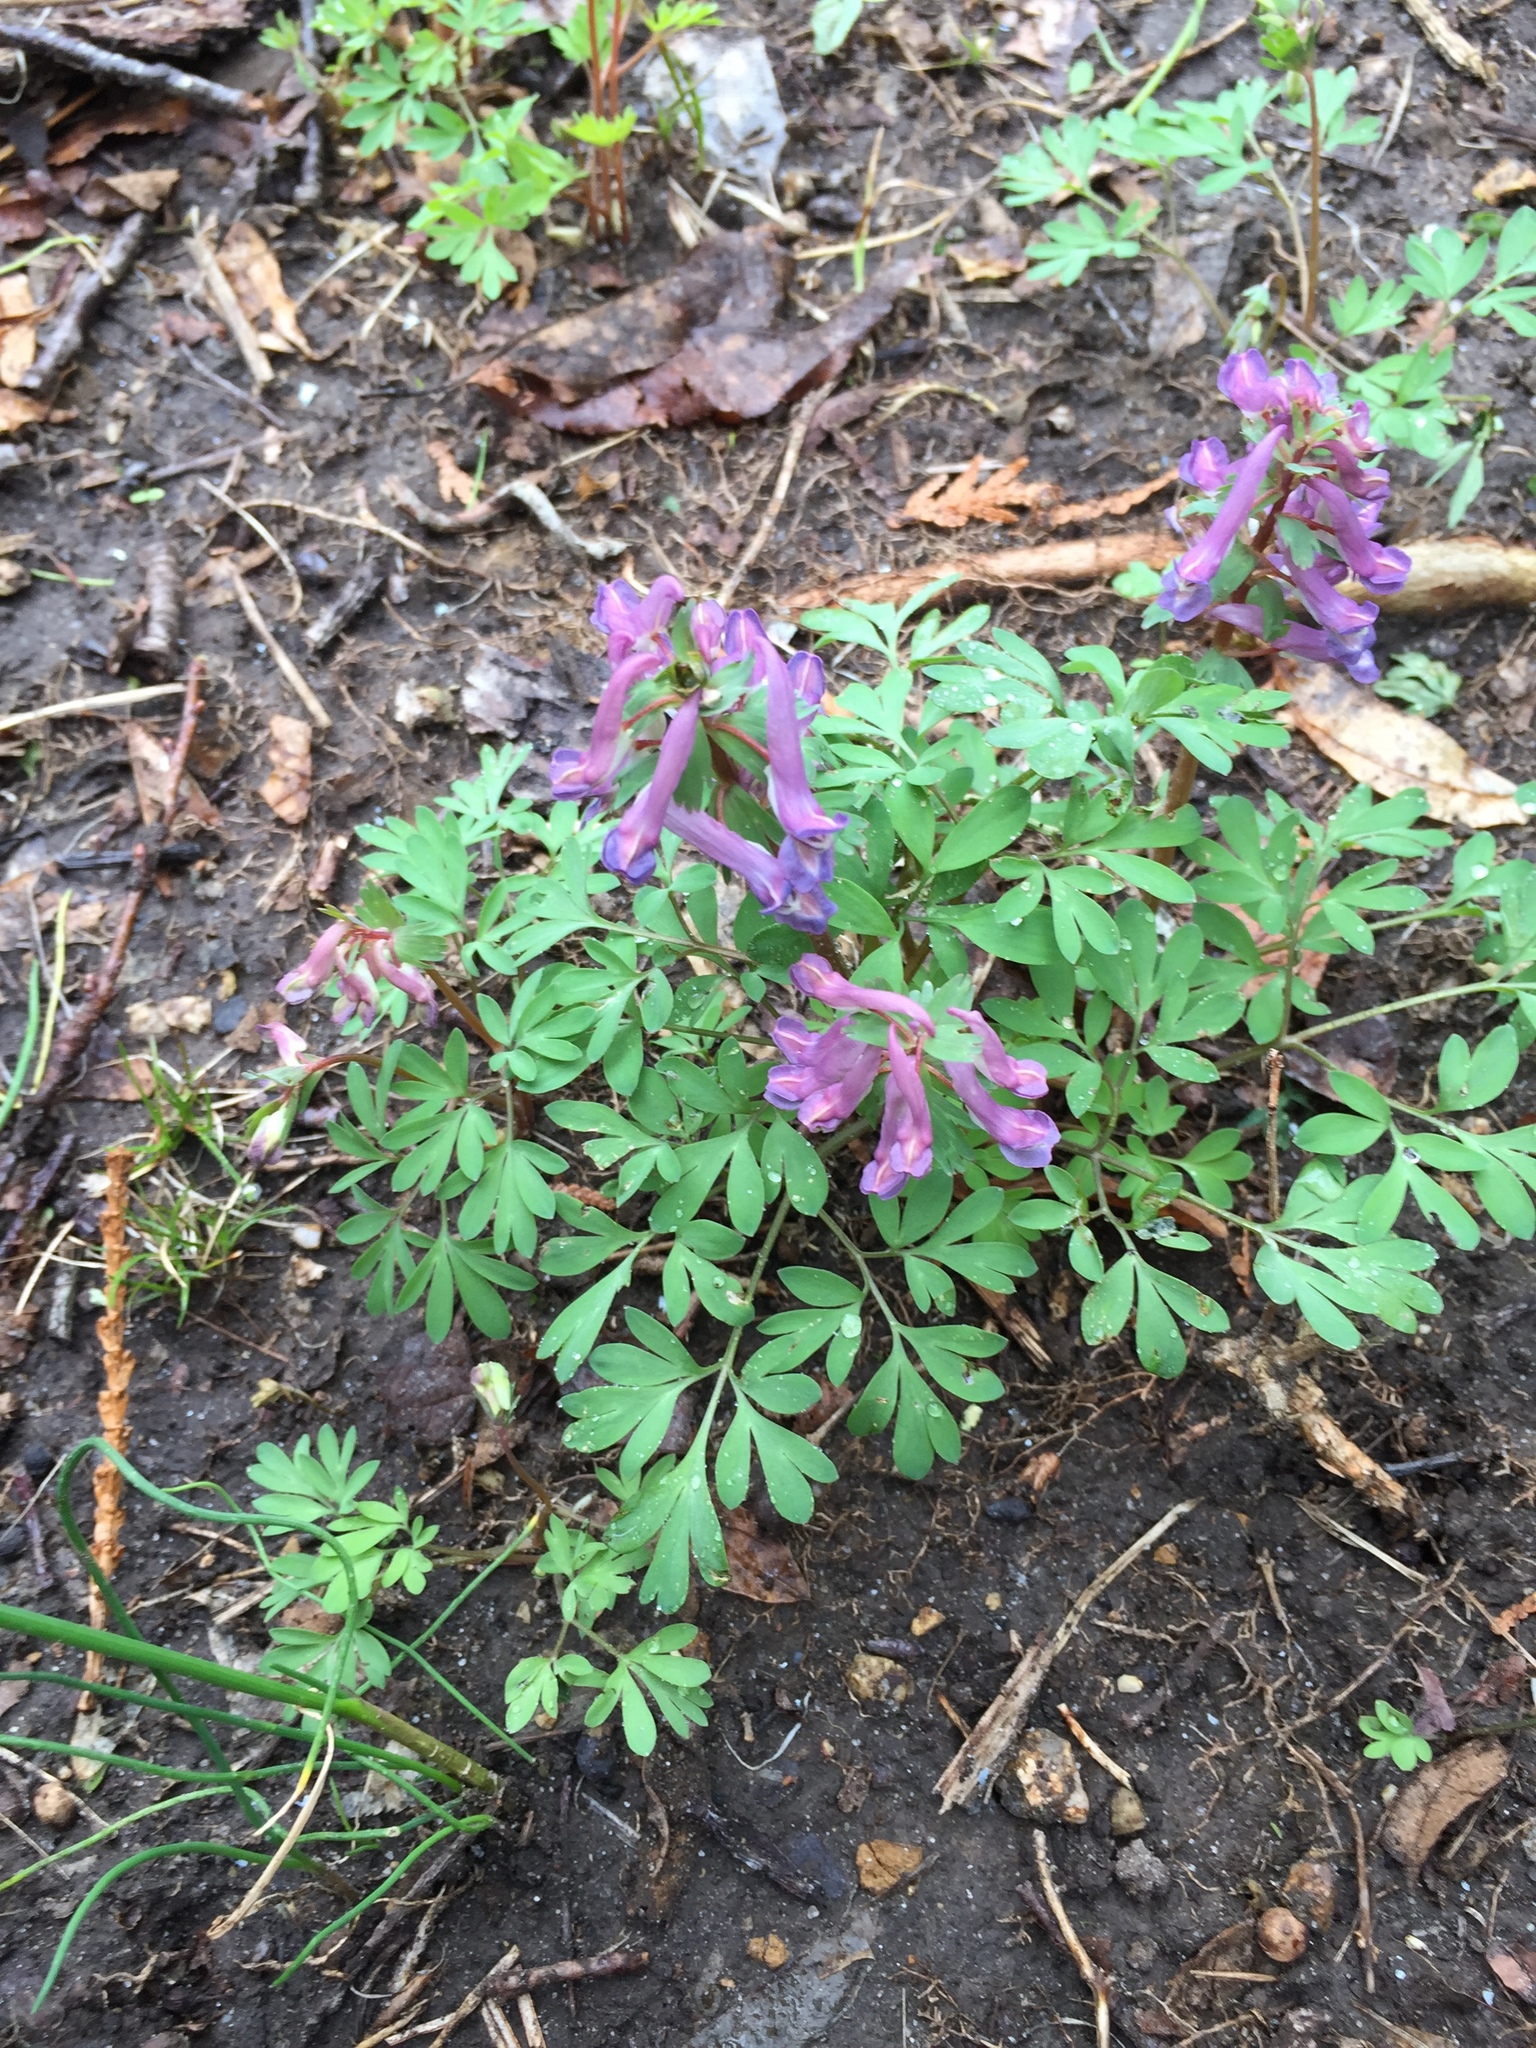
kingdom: Plantae
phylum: Tracheophyta
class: Magnoliopsida
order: Ranunculales
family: Papaveraceae
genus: Corydalis
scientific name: Corydalis solida
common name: Bird-in-a-bush
